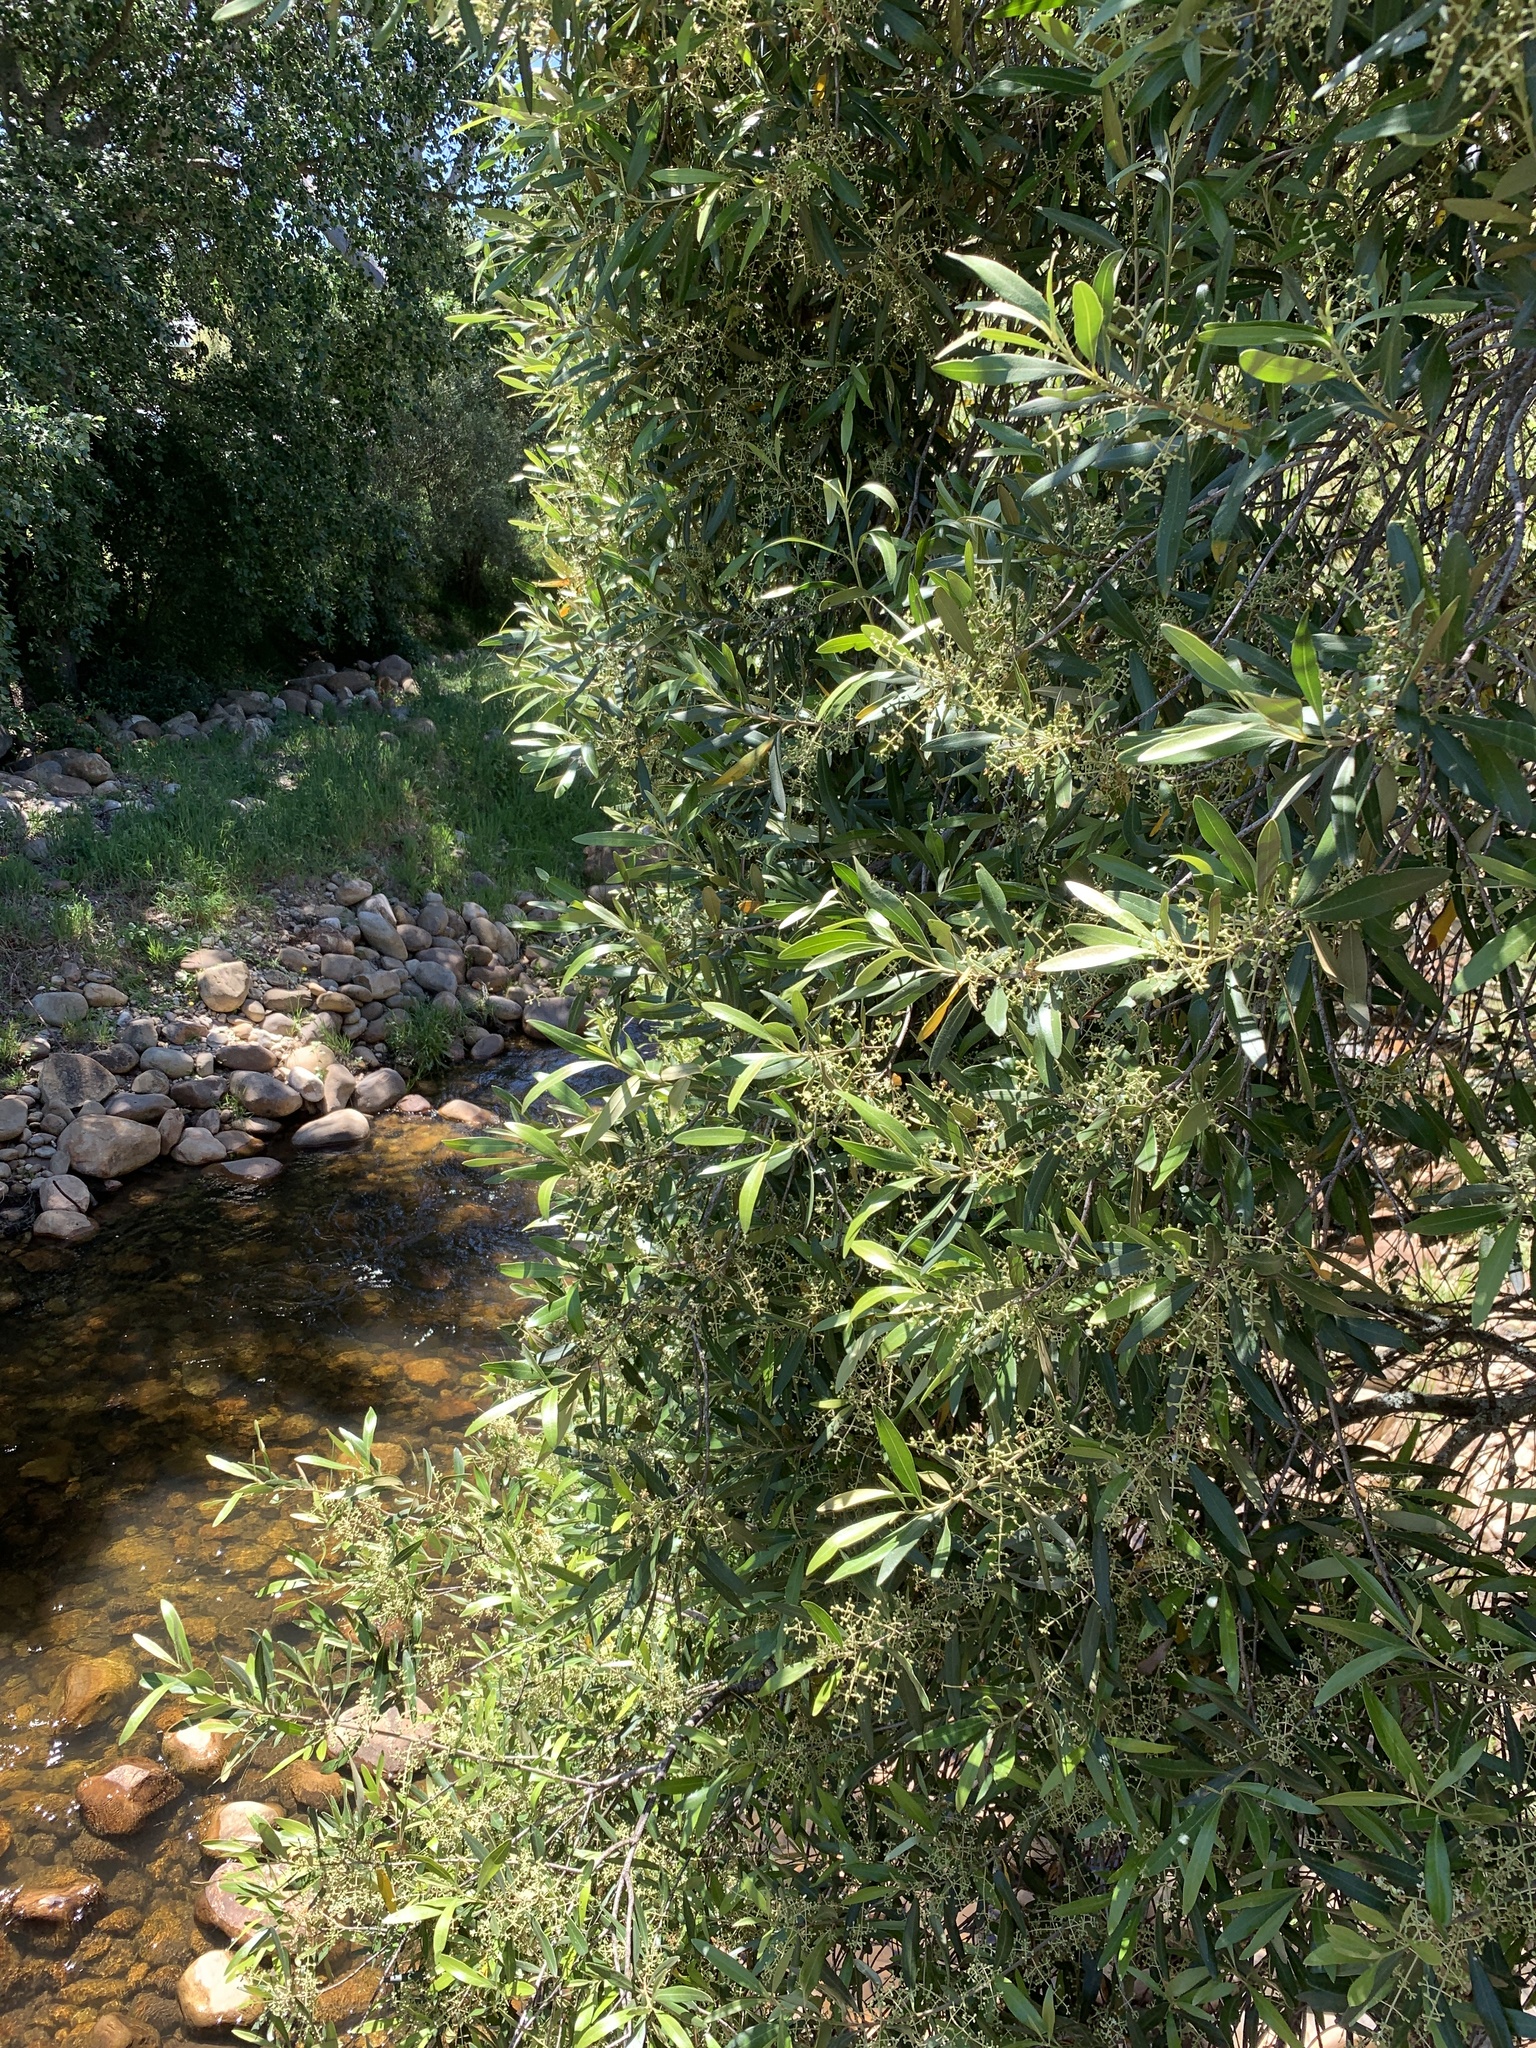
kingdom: Plantae
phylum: Tracheophyta
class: Magnoliopsida
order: Lamiales
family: Oleaceae
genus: Olea
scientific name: Olea europaea
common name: Olive
